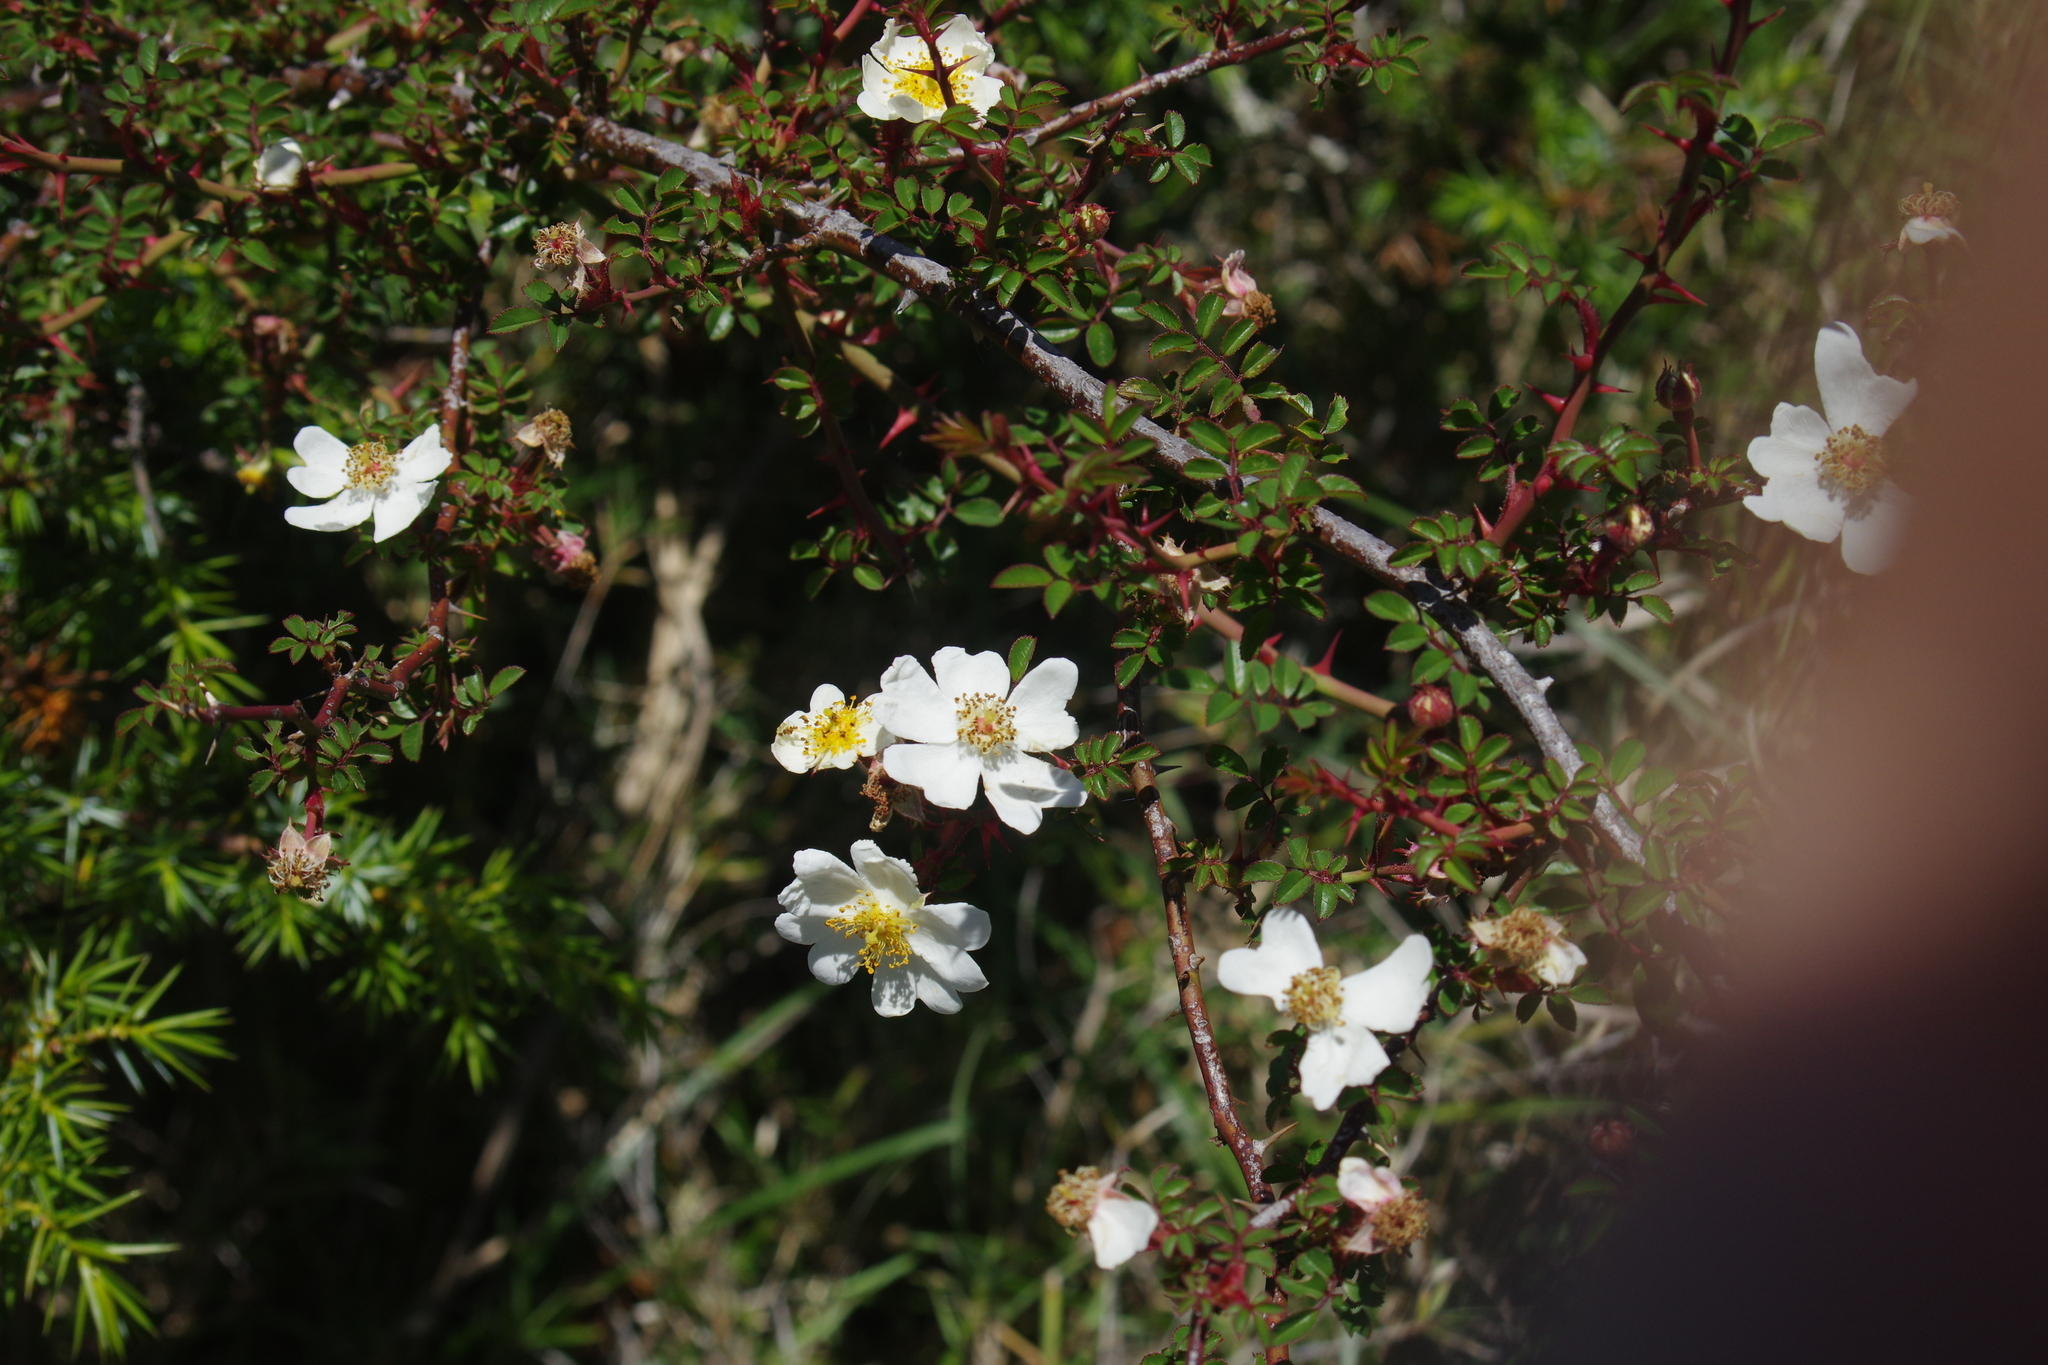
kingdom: Plantae
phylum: Tracheophyta
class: Magnoliopsida
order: Rosales
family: Rosaceae
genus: Rosa
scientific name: Rosa transmorrisonensis
